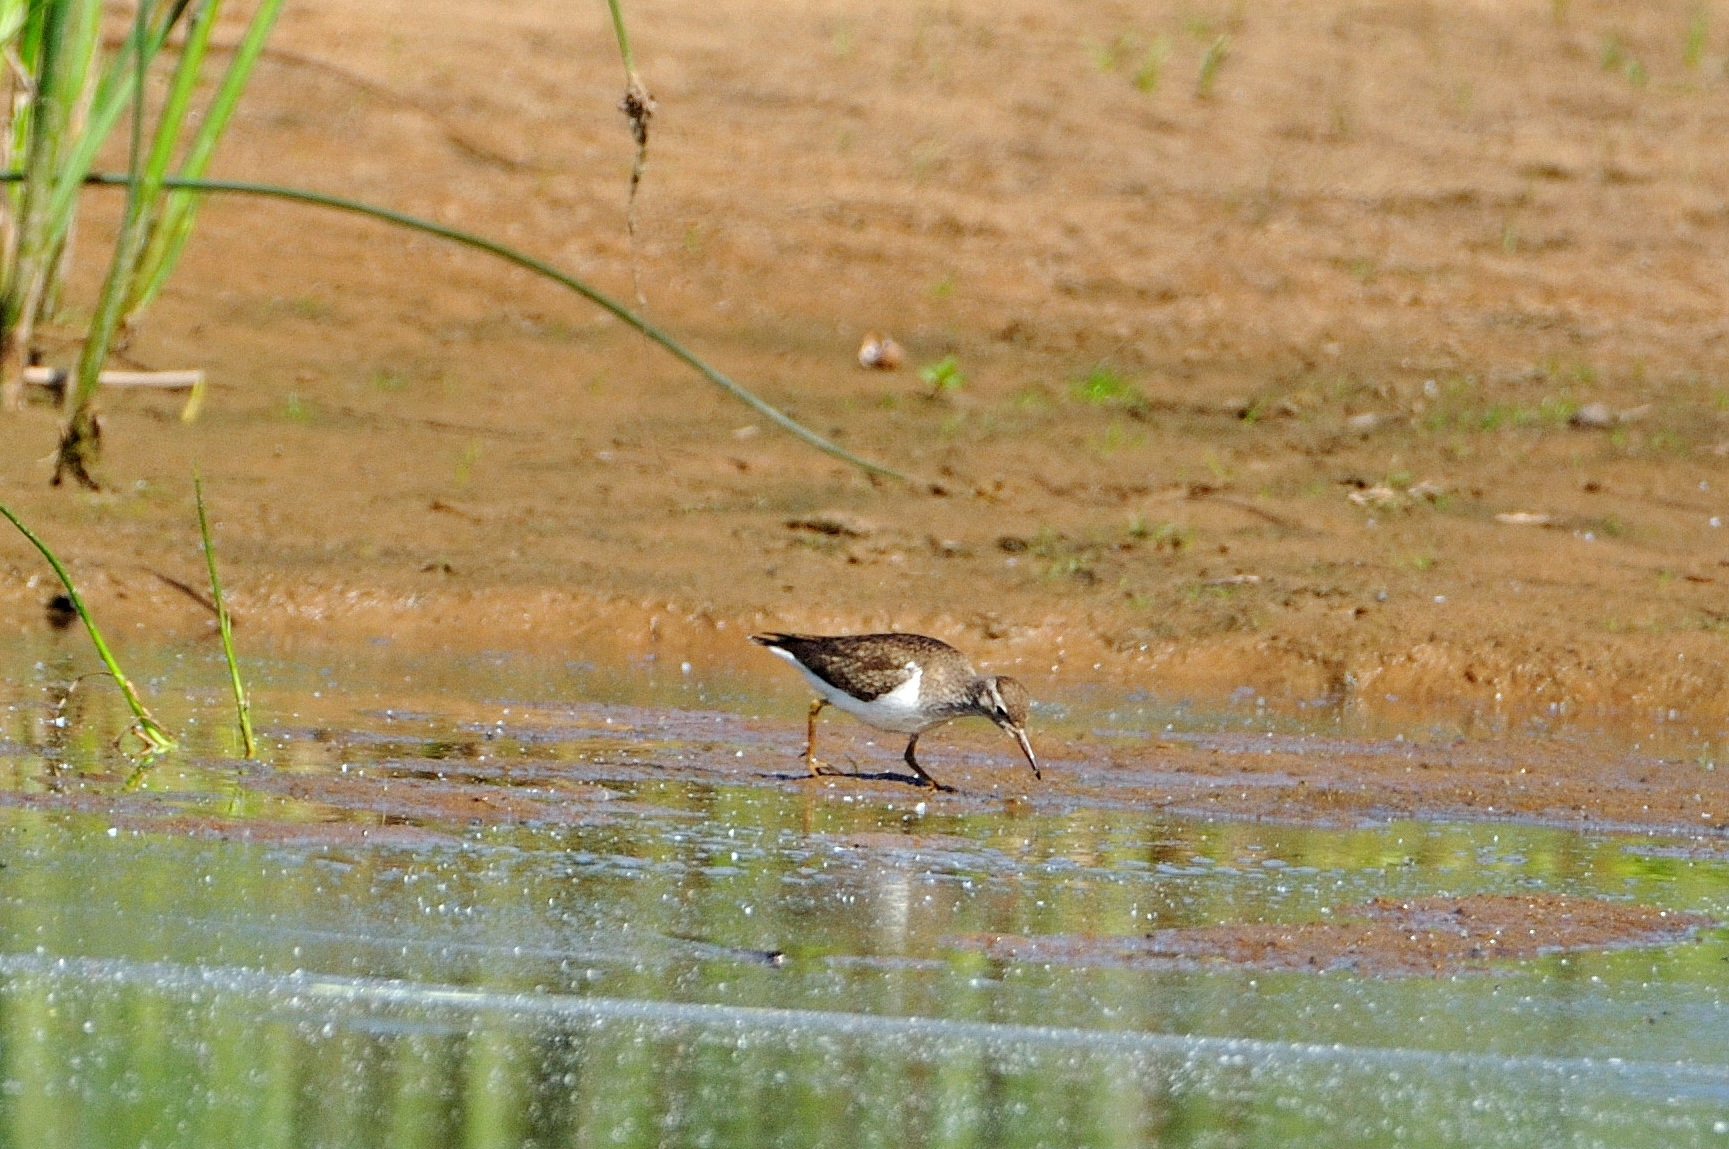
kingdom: Animalia
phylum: Chordata
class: Aves
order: Charadriiformes
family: Scolopacidae
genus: Actitis
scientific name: Actitis hypoleucos
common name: Common sandpiper
